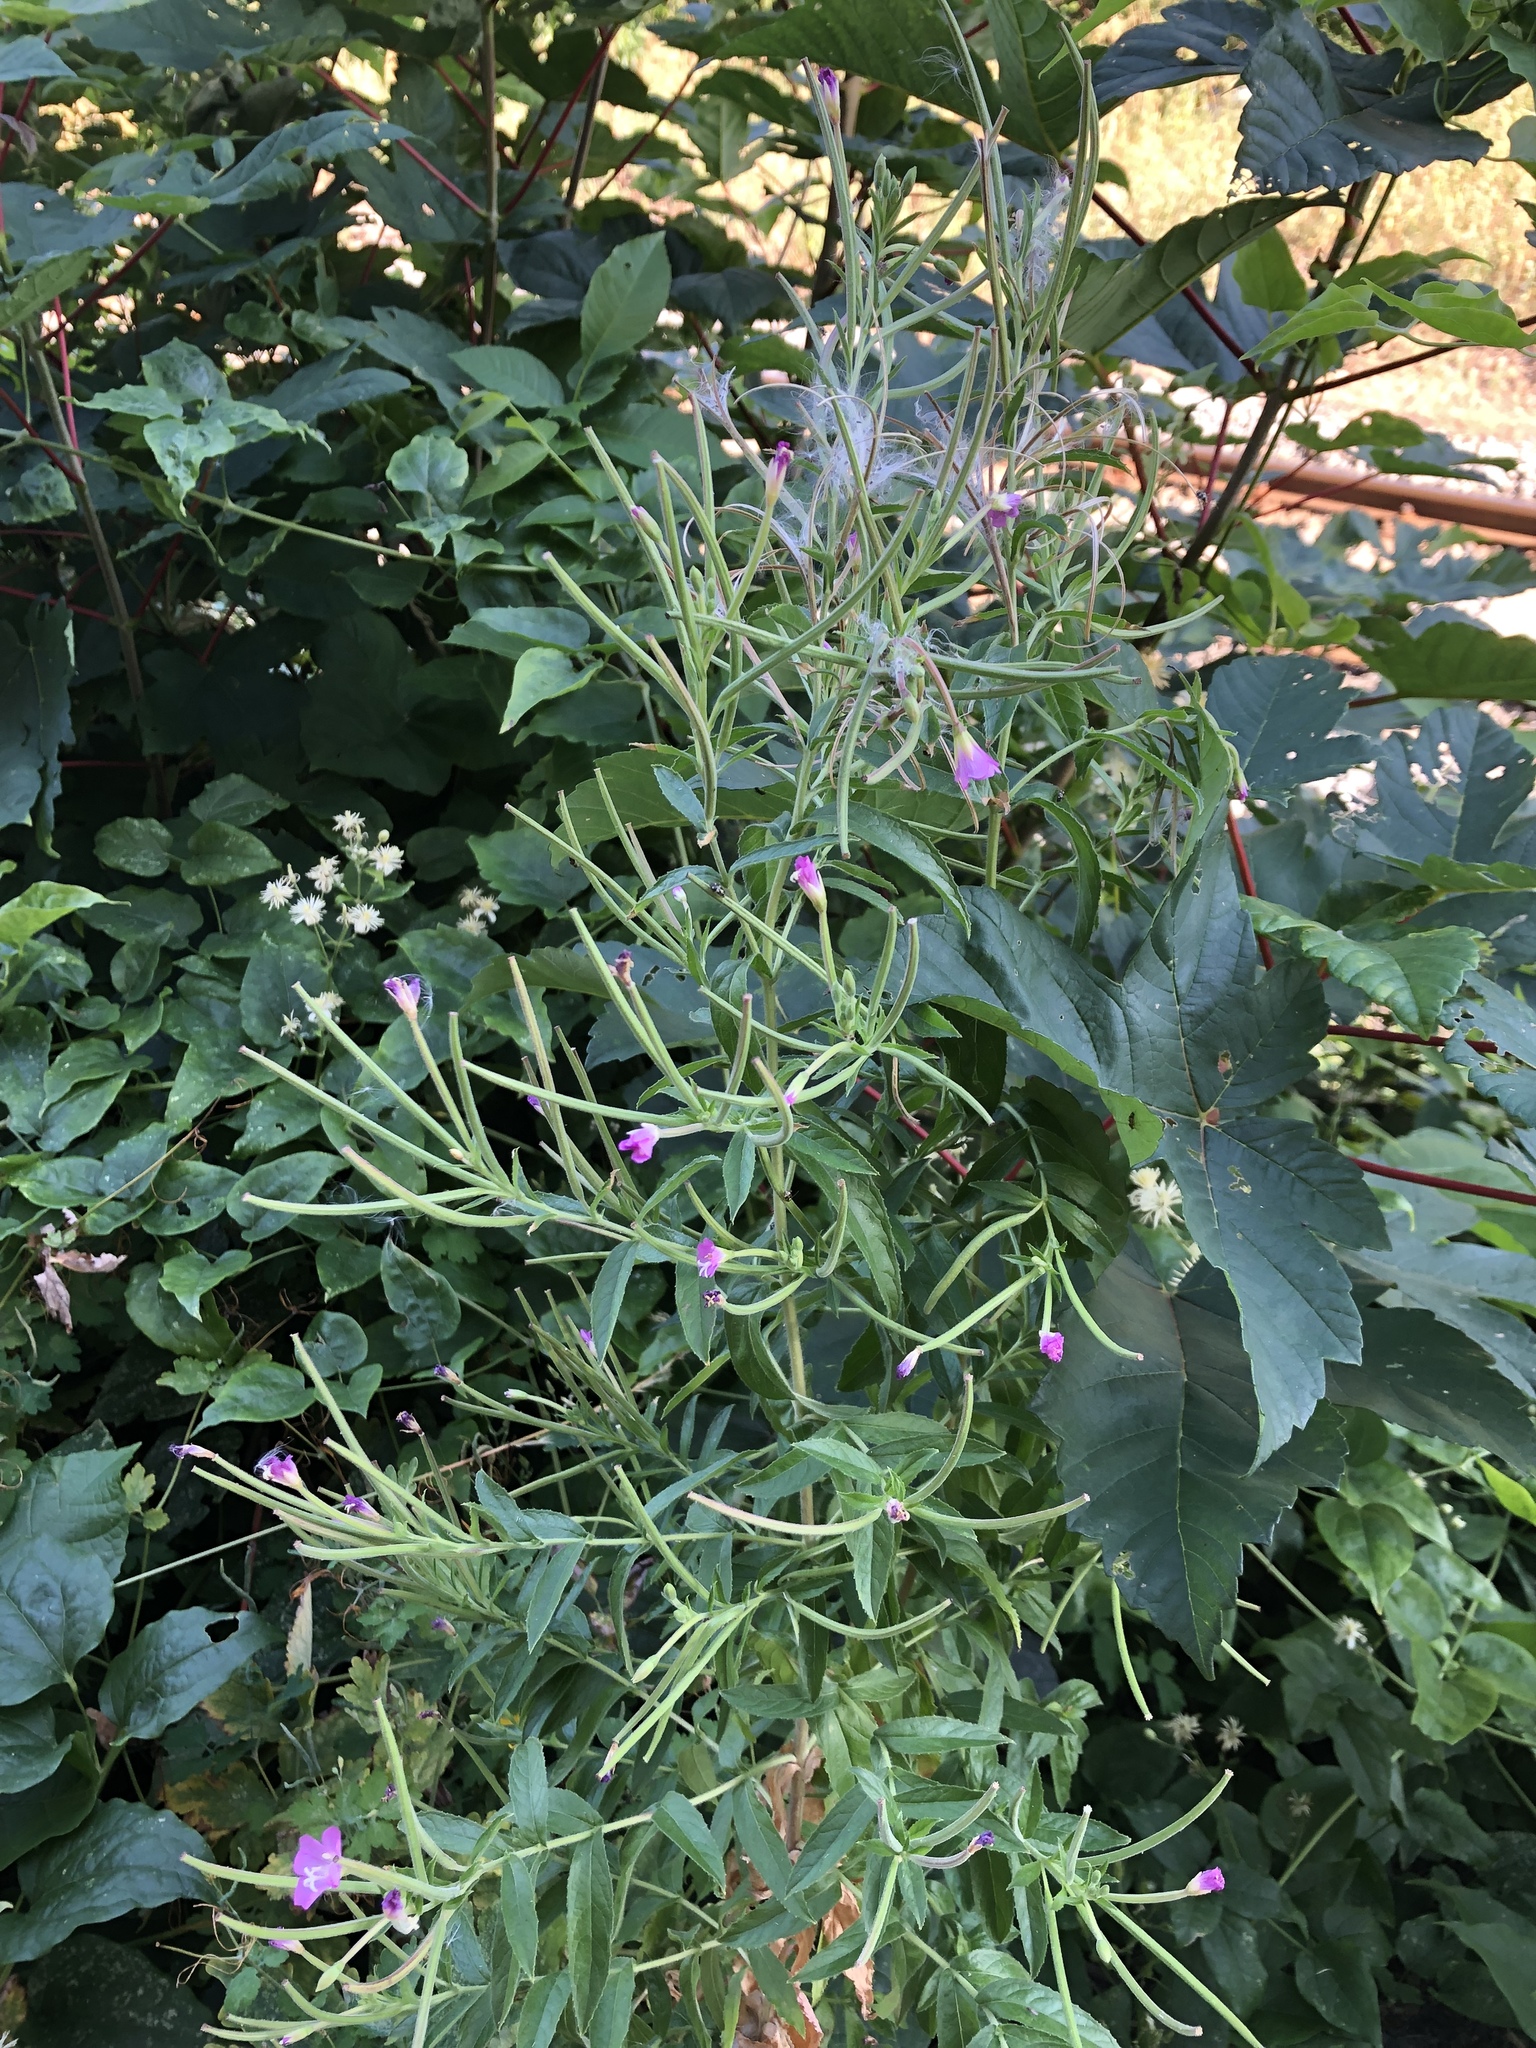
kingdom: Plantae
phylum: Tracheophyta
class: Magnoliopsida
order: Myrtales
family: Onagraceae
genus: Epilobium
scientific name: Epilobium hirsutum
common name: Great willowherb
